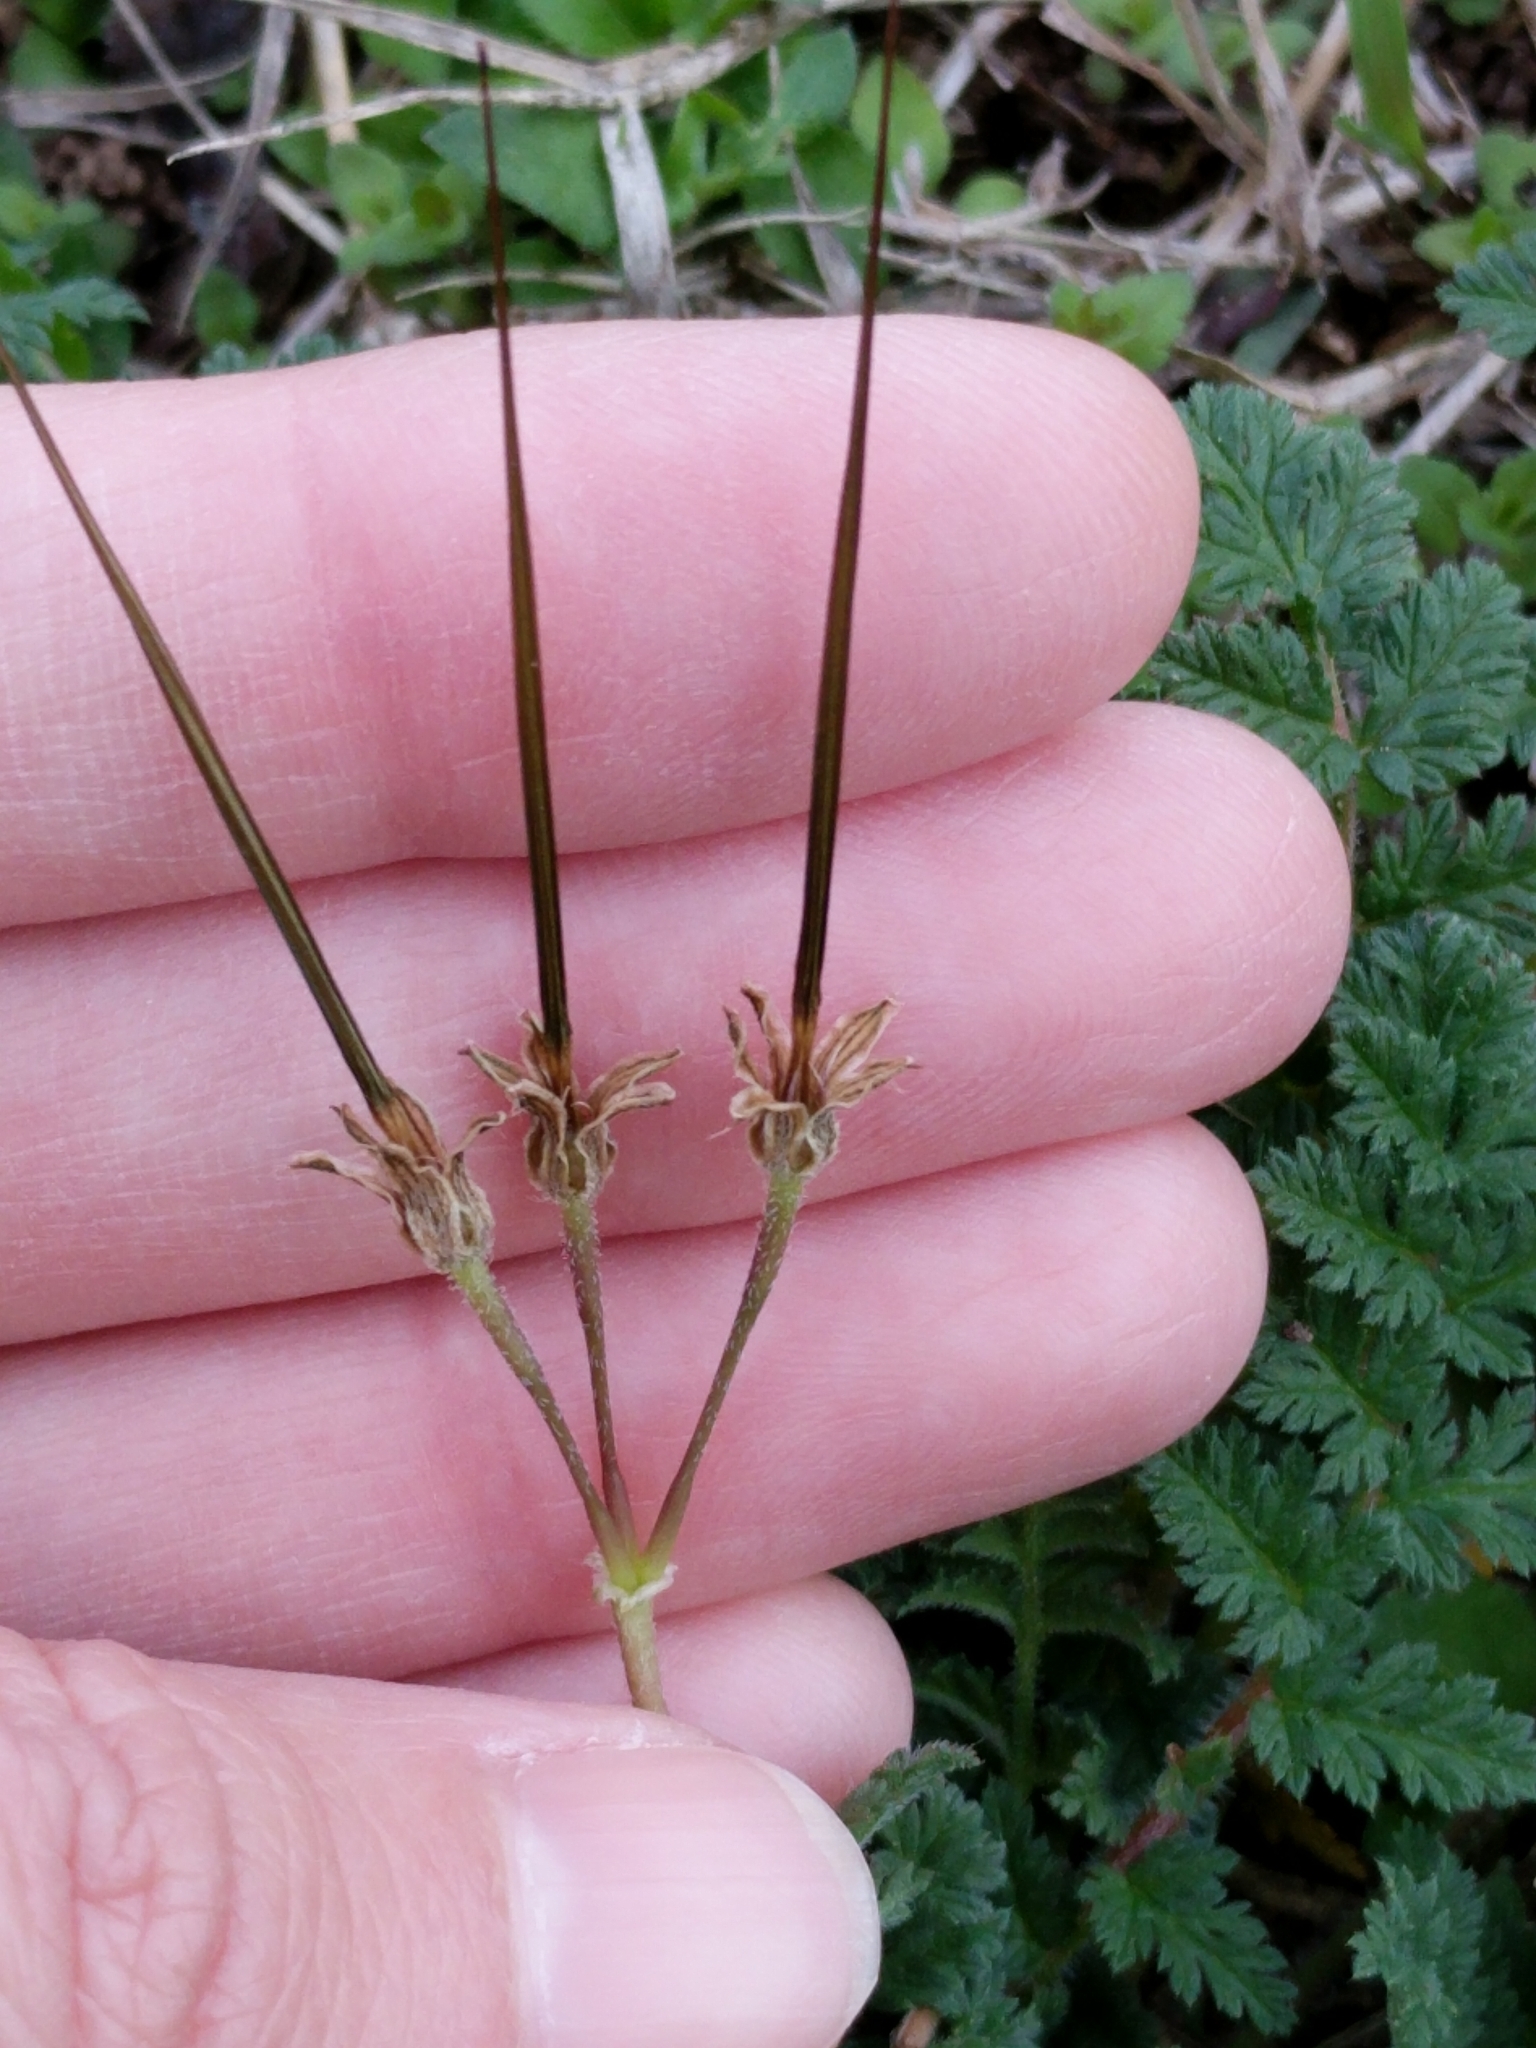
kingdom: Plantae
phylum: Tracheophyta
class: Magnoliopsida
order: Geraniales
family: Geraniaceae
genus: Erodium
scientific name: Erodium cicutarium
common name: Common stork's-bill
